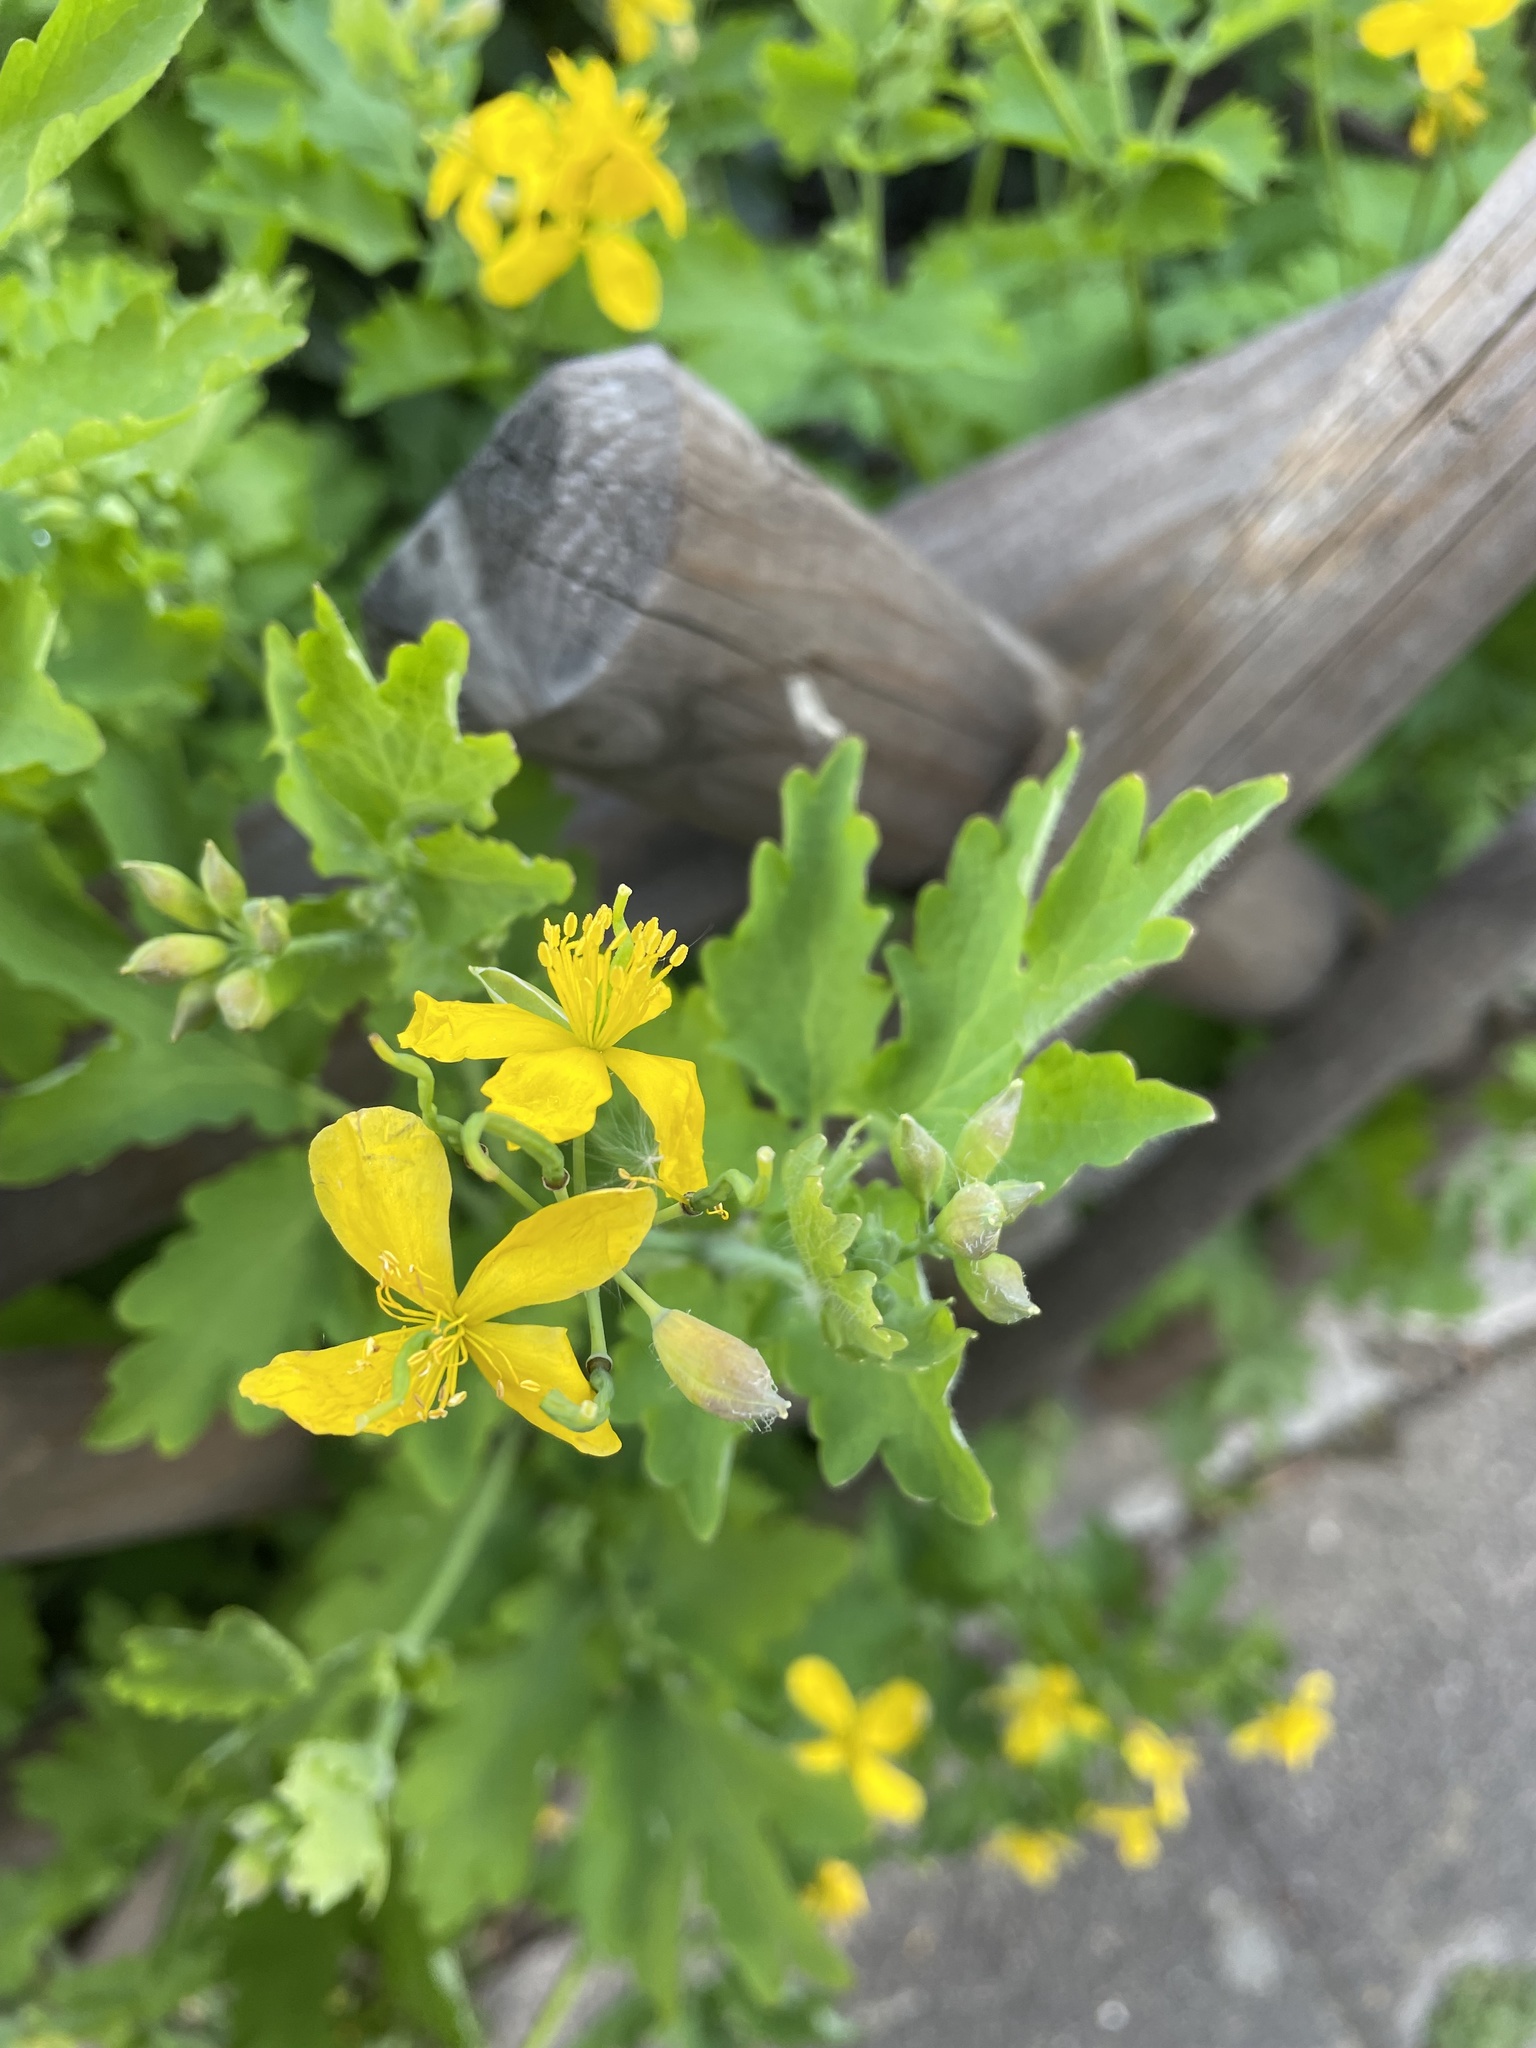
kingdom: Plantae
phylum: Tracheophyta
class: Magnoliopsida
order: Ranunculales
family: Papaveraceae
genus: Chelidonium
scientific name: Chelidonium majus
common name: Greater celandine
